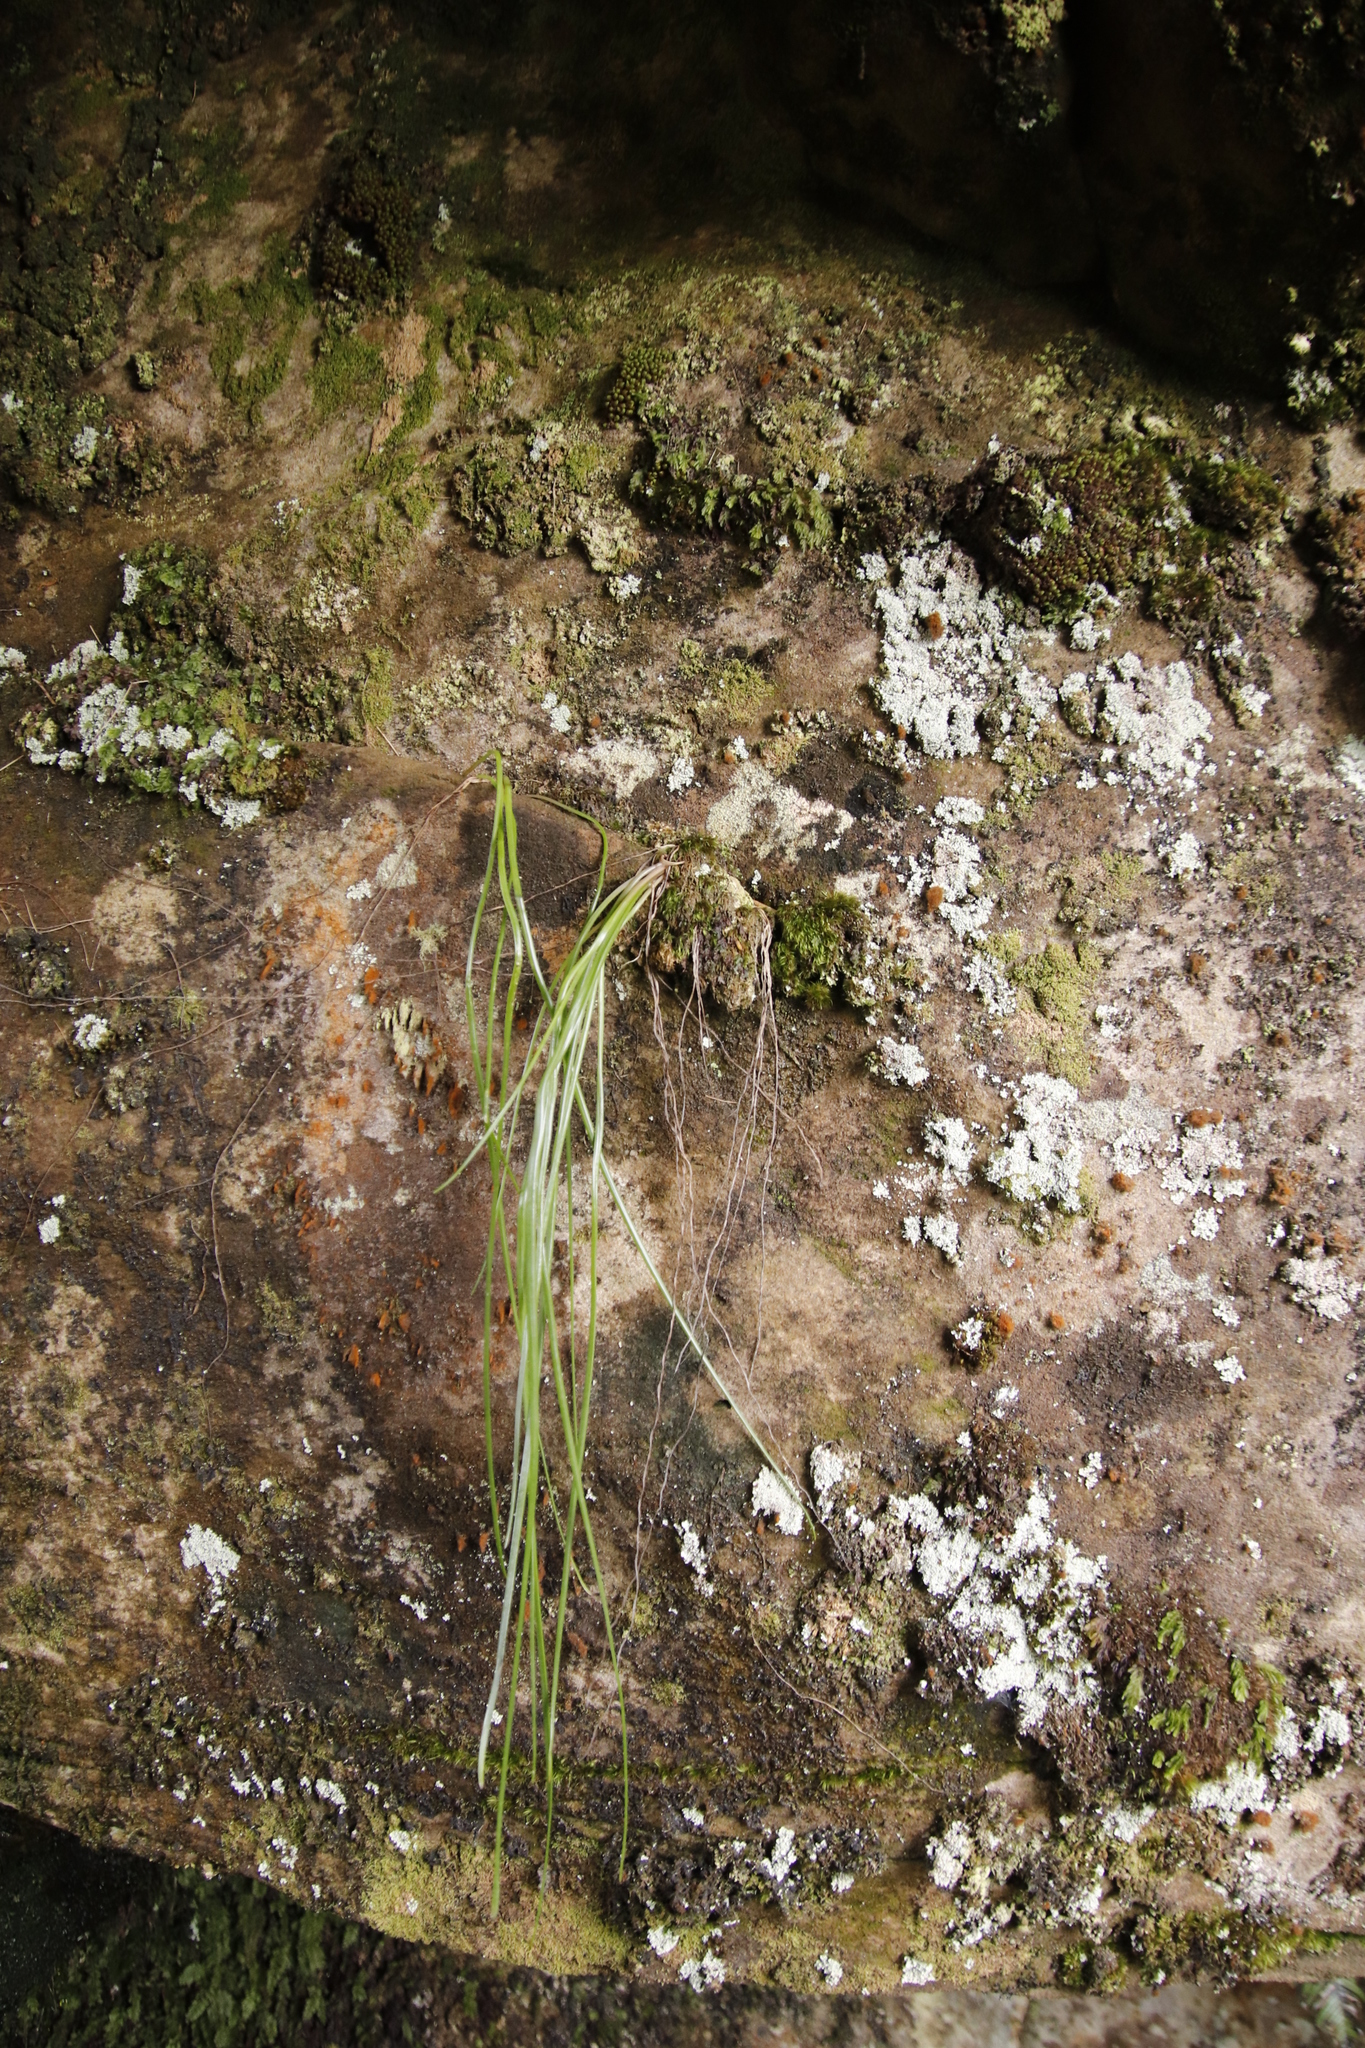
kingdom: Plantae
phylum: Tracheophyta
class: Liliopsida
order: Asparagales
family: Asphodelaceae
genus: Trachyandra
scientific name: Trachyandra tabularis
